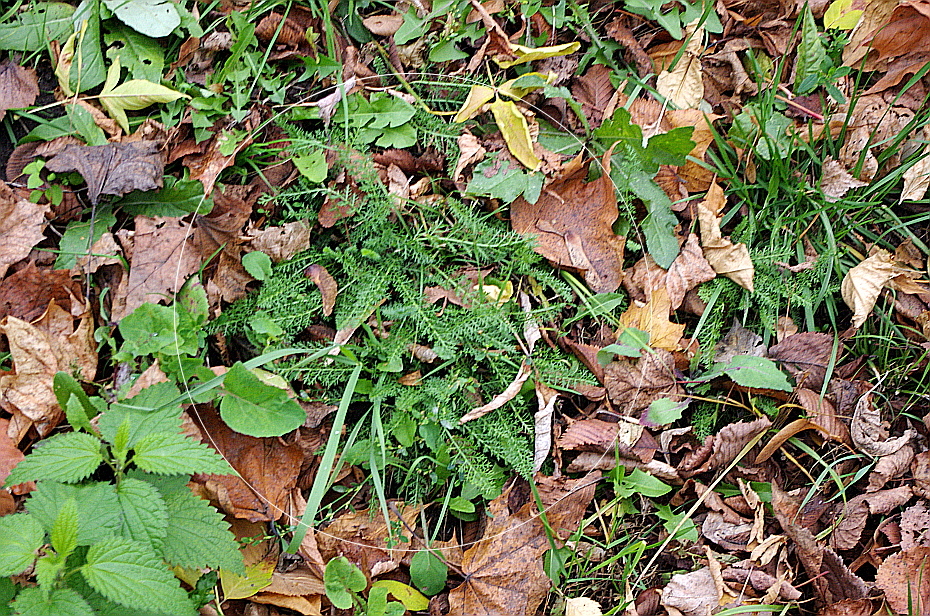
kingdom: Plantae
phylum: Tracheophyta
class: Magnoliopsida
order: Asterales
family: Asteraceae
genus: Achillea
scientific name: Achillea millefolium
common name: Yarrow
